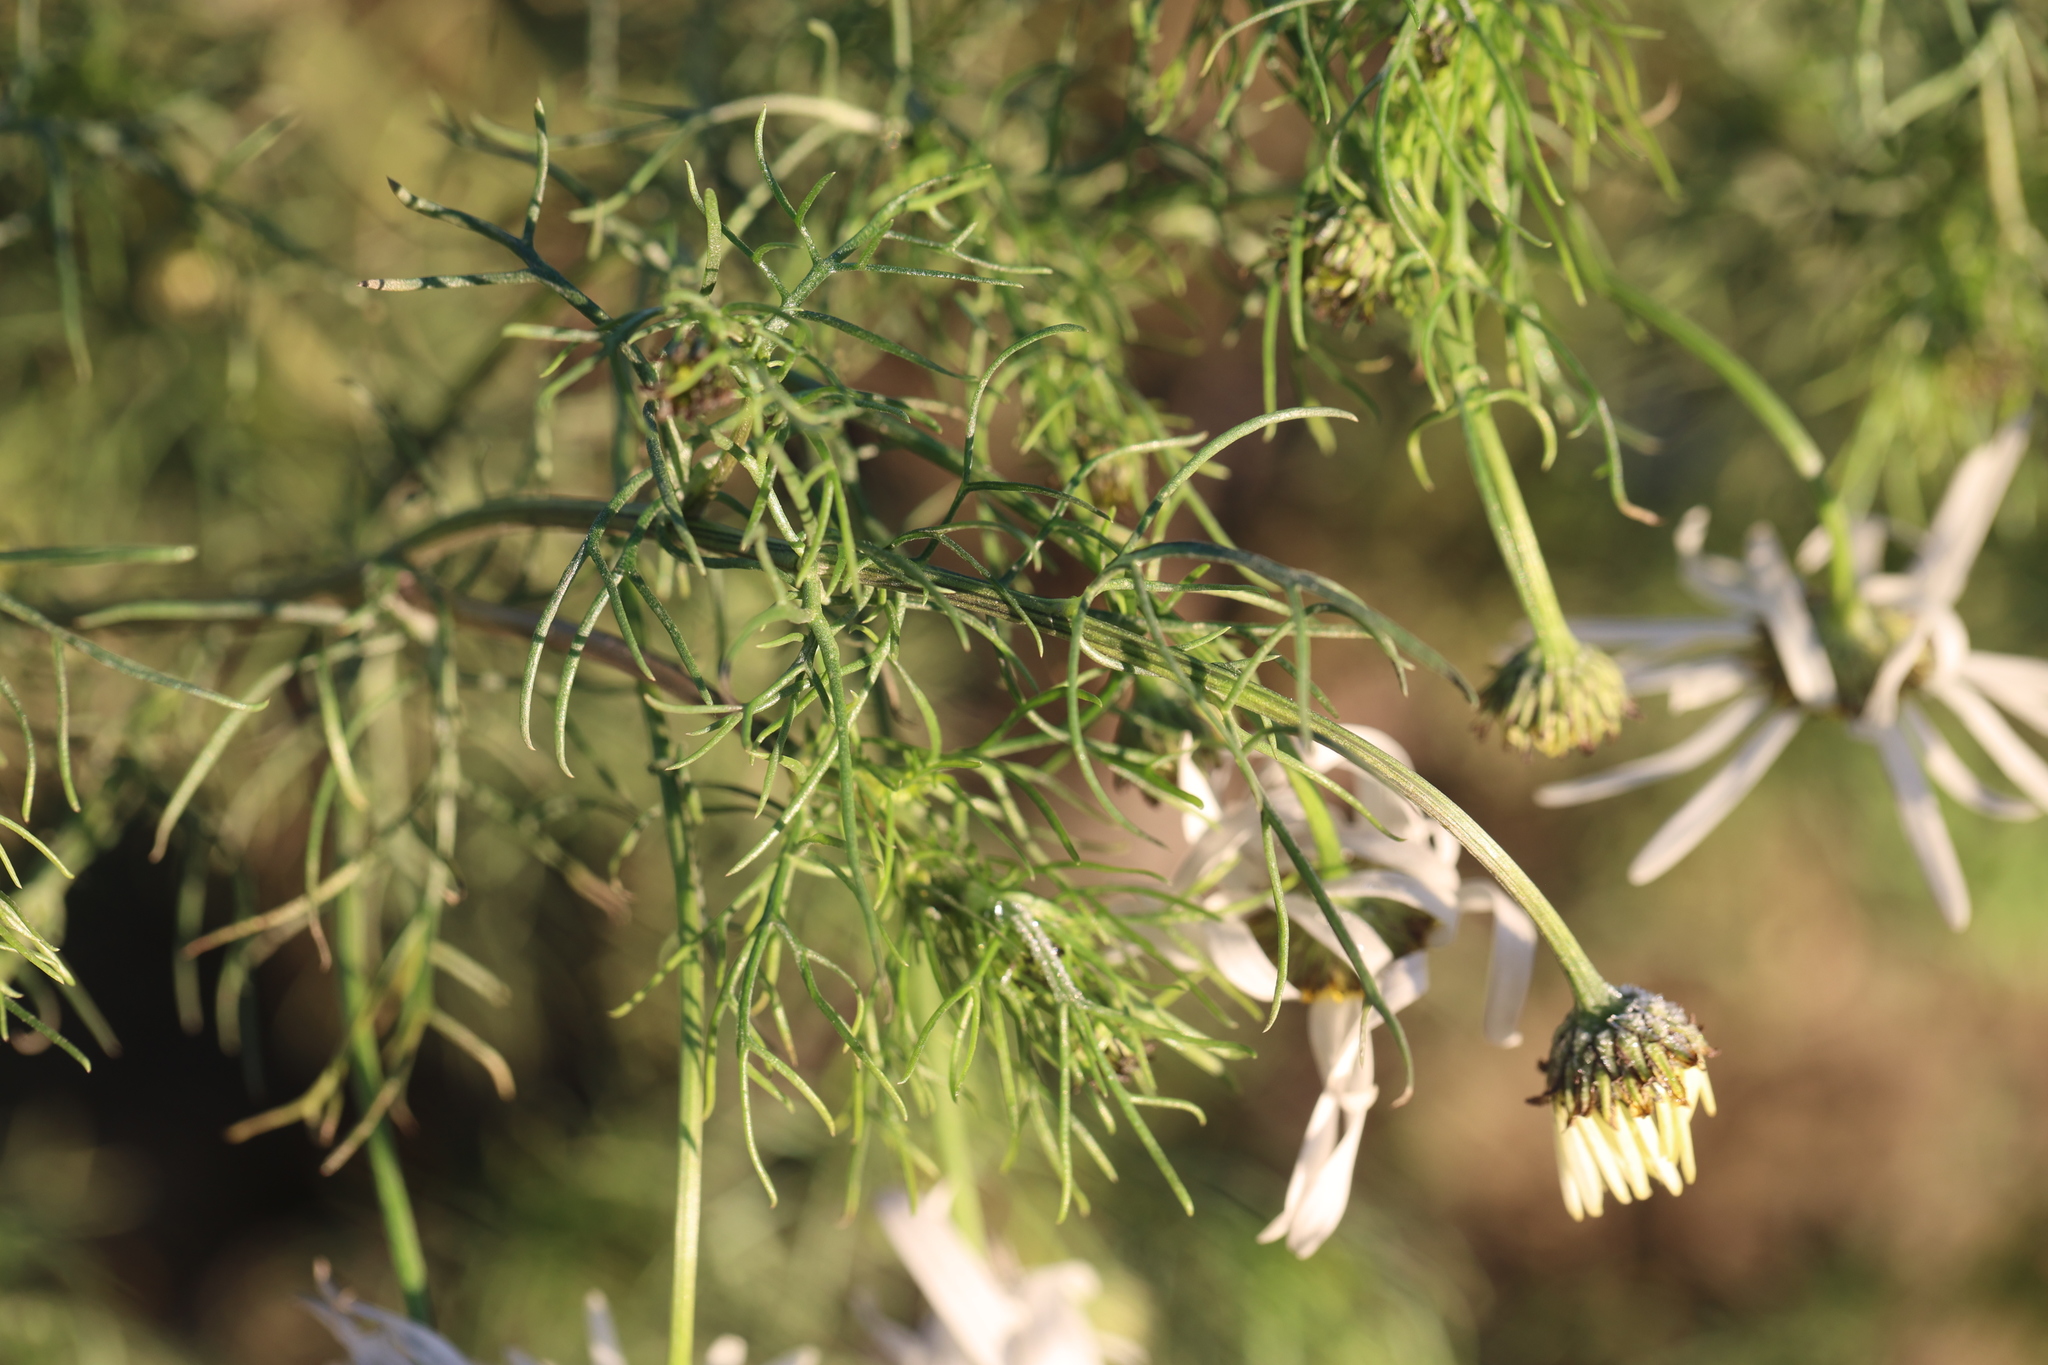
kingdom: Plantae
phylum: Tracheophyta
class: Magnoliopsida
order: Asterales
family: Asteraceae
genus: Tripleurospermum
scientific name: Tripleurospermum inodorum
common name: Scentless mayweed
